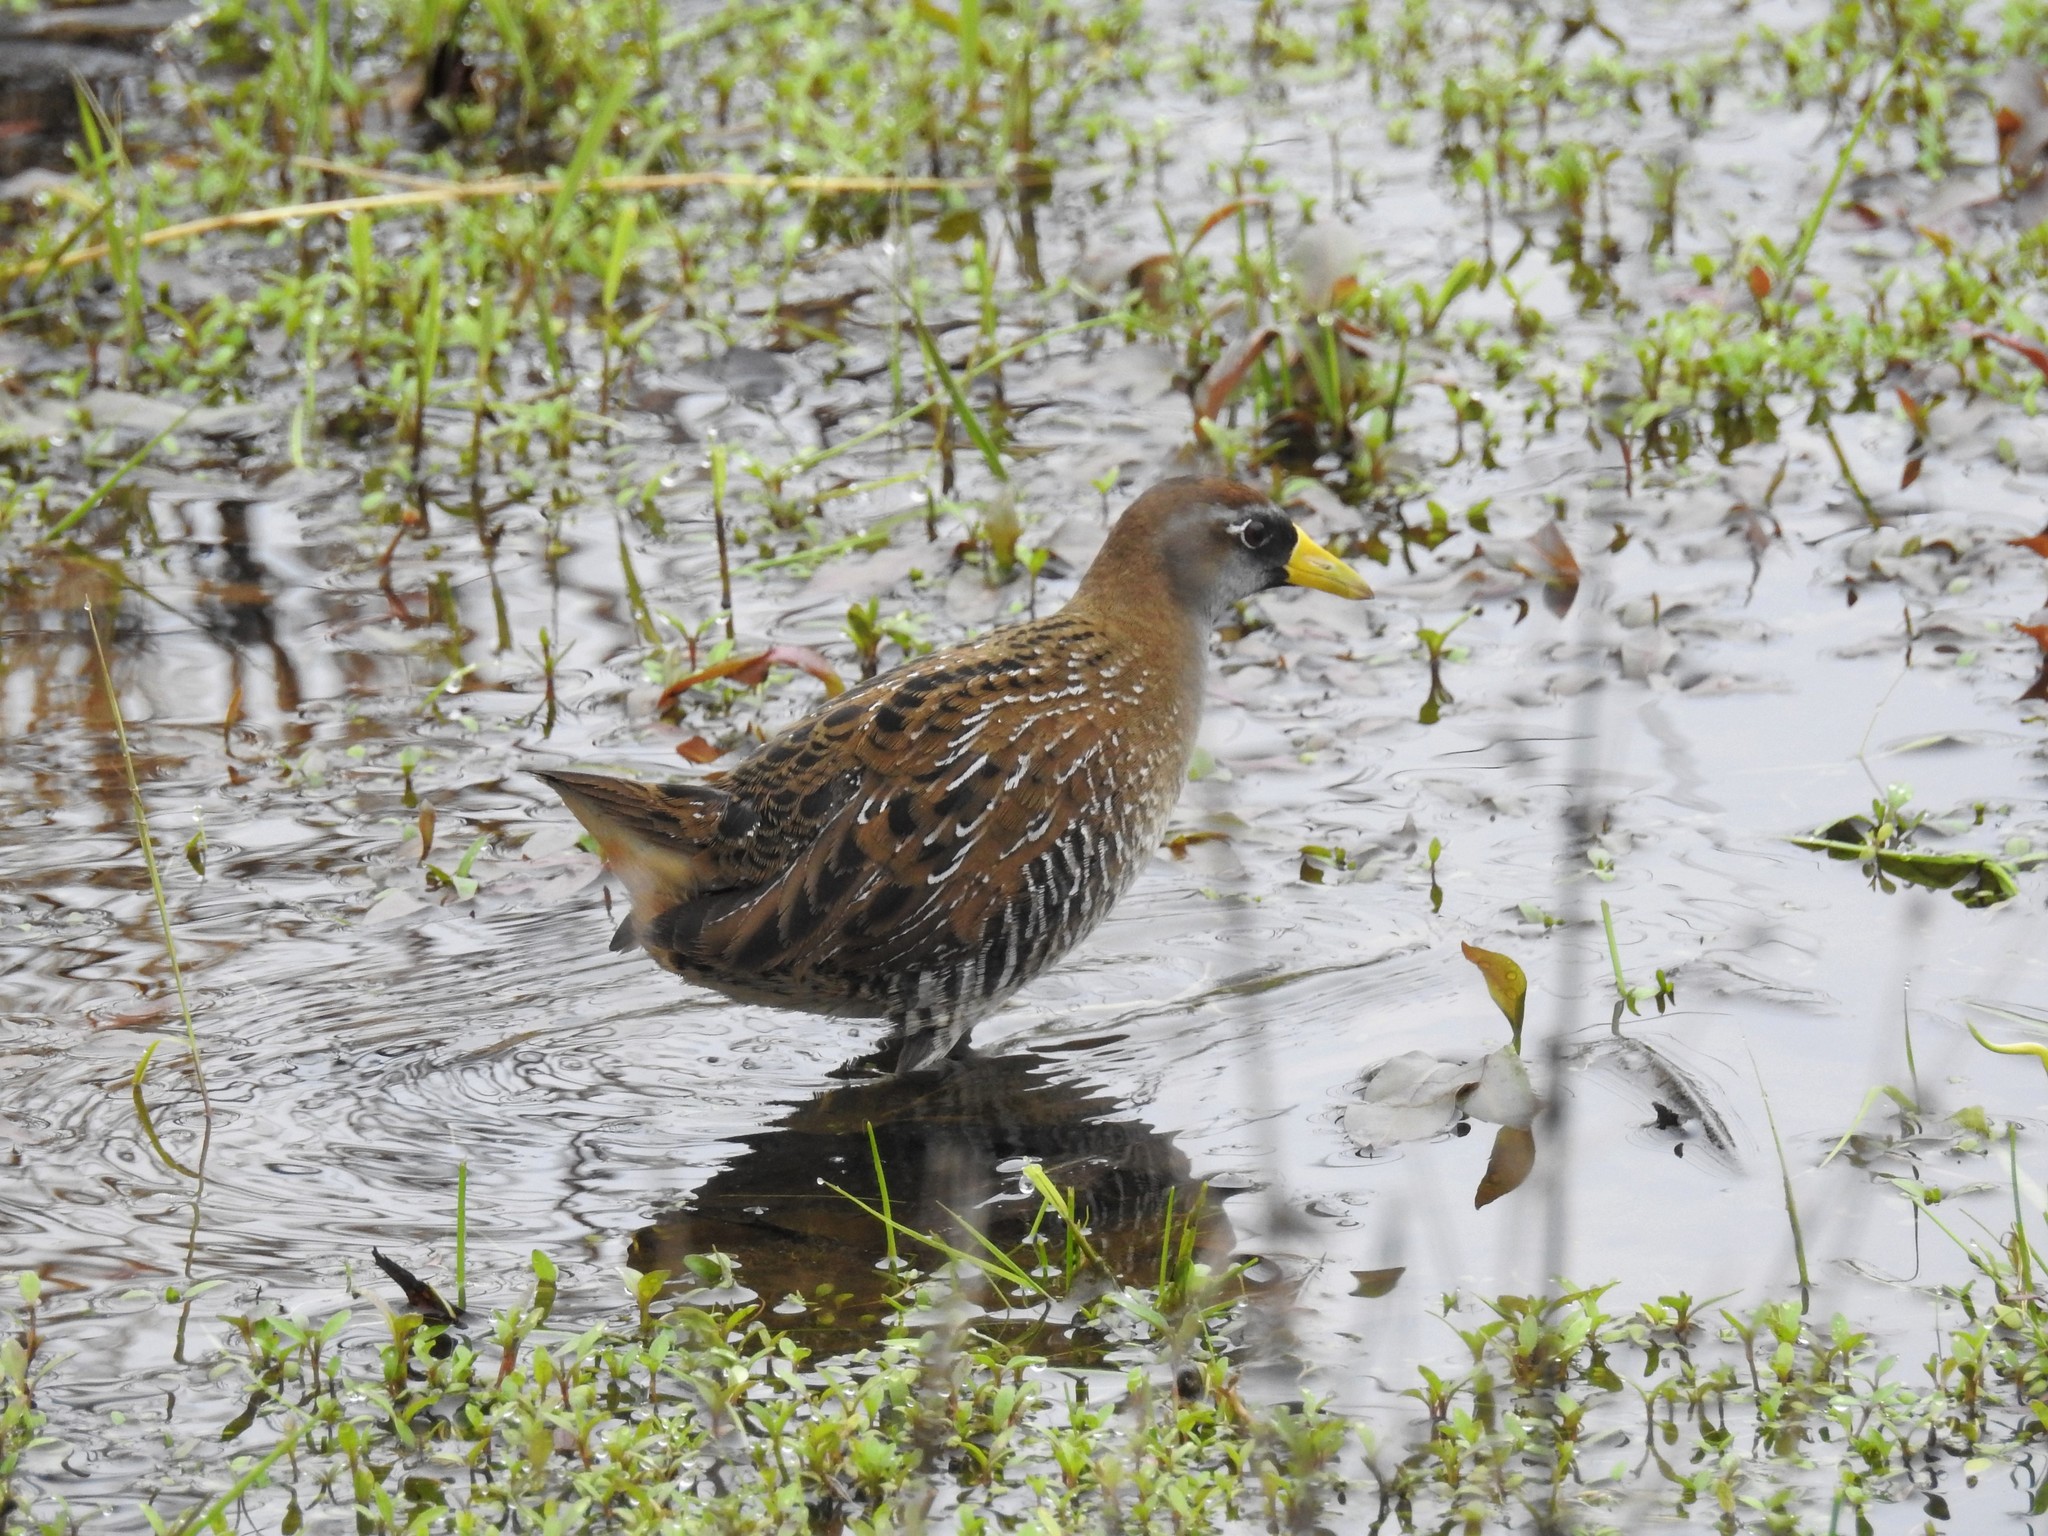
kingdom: Animalia
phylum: Chordata
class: Aves
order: Gruiformes
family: Rallidae
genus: Porzana
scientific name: Porzana carolina
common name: Sora
